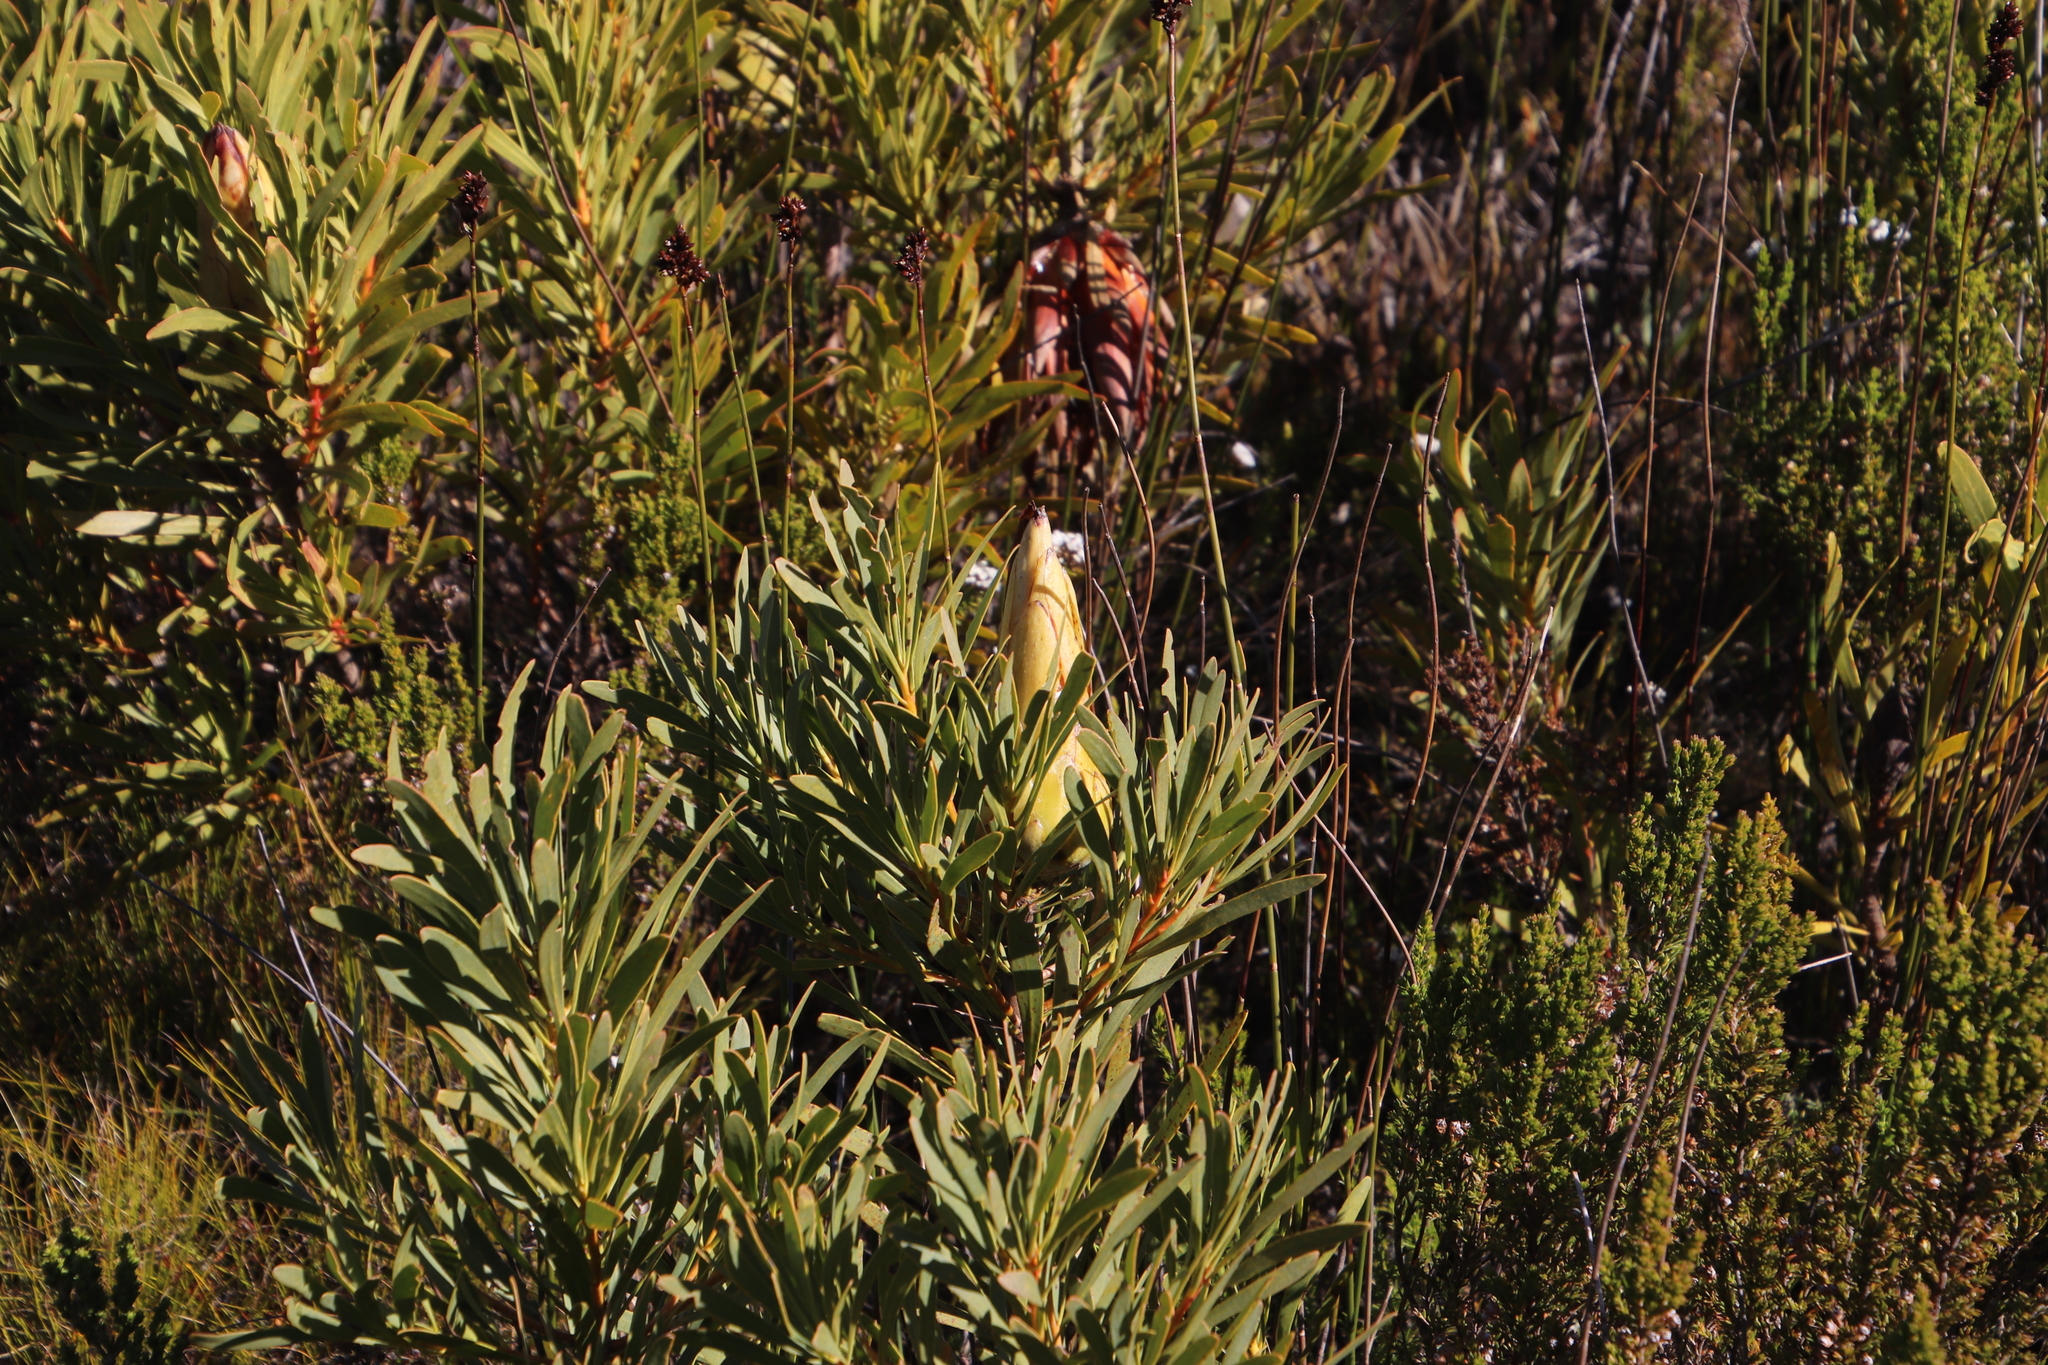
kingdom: Plantae
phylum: Tracheophyta
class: Magnoliopsida
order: Proteales
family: Proteaceae
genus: Protea
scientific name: Protea repens
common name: Sugarbush
